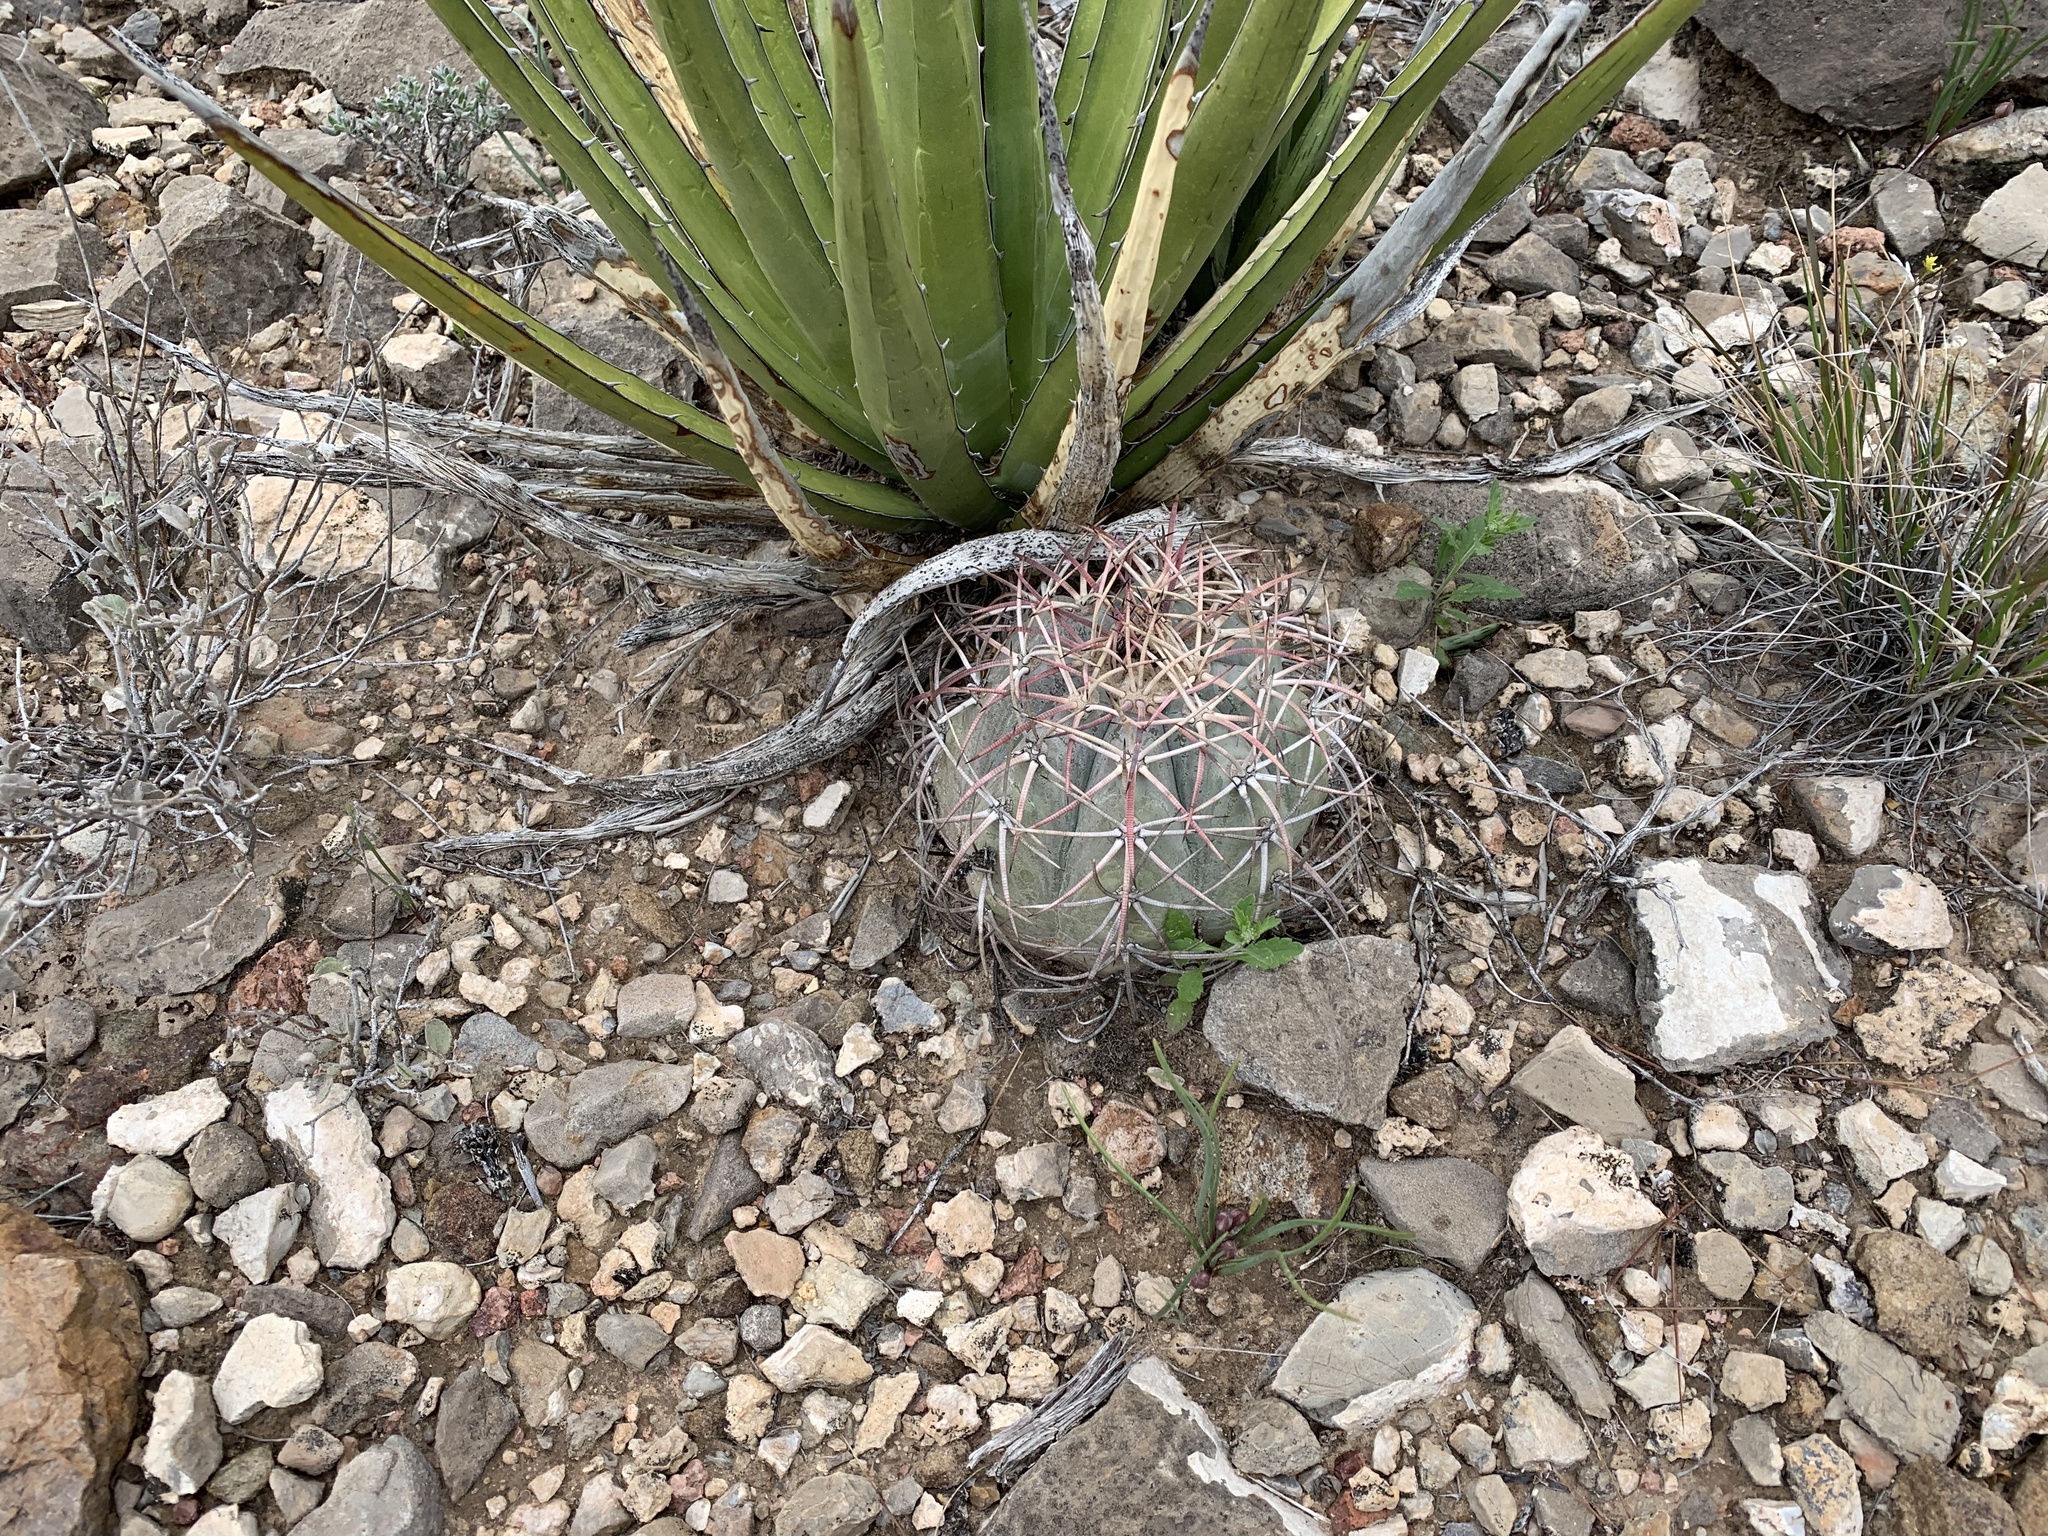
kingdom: Plantae
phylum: Tracheophyta
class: Magnoliopsida
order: Caryophyllales
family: Cactaceae
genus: Echinocactus
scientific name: Echinocactus horizonthalonius
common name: Devilshead
